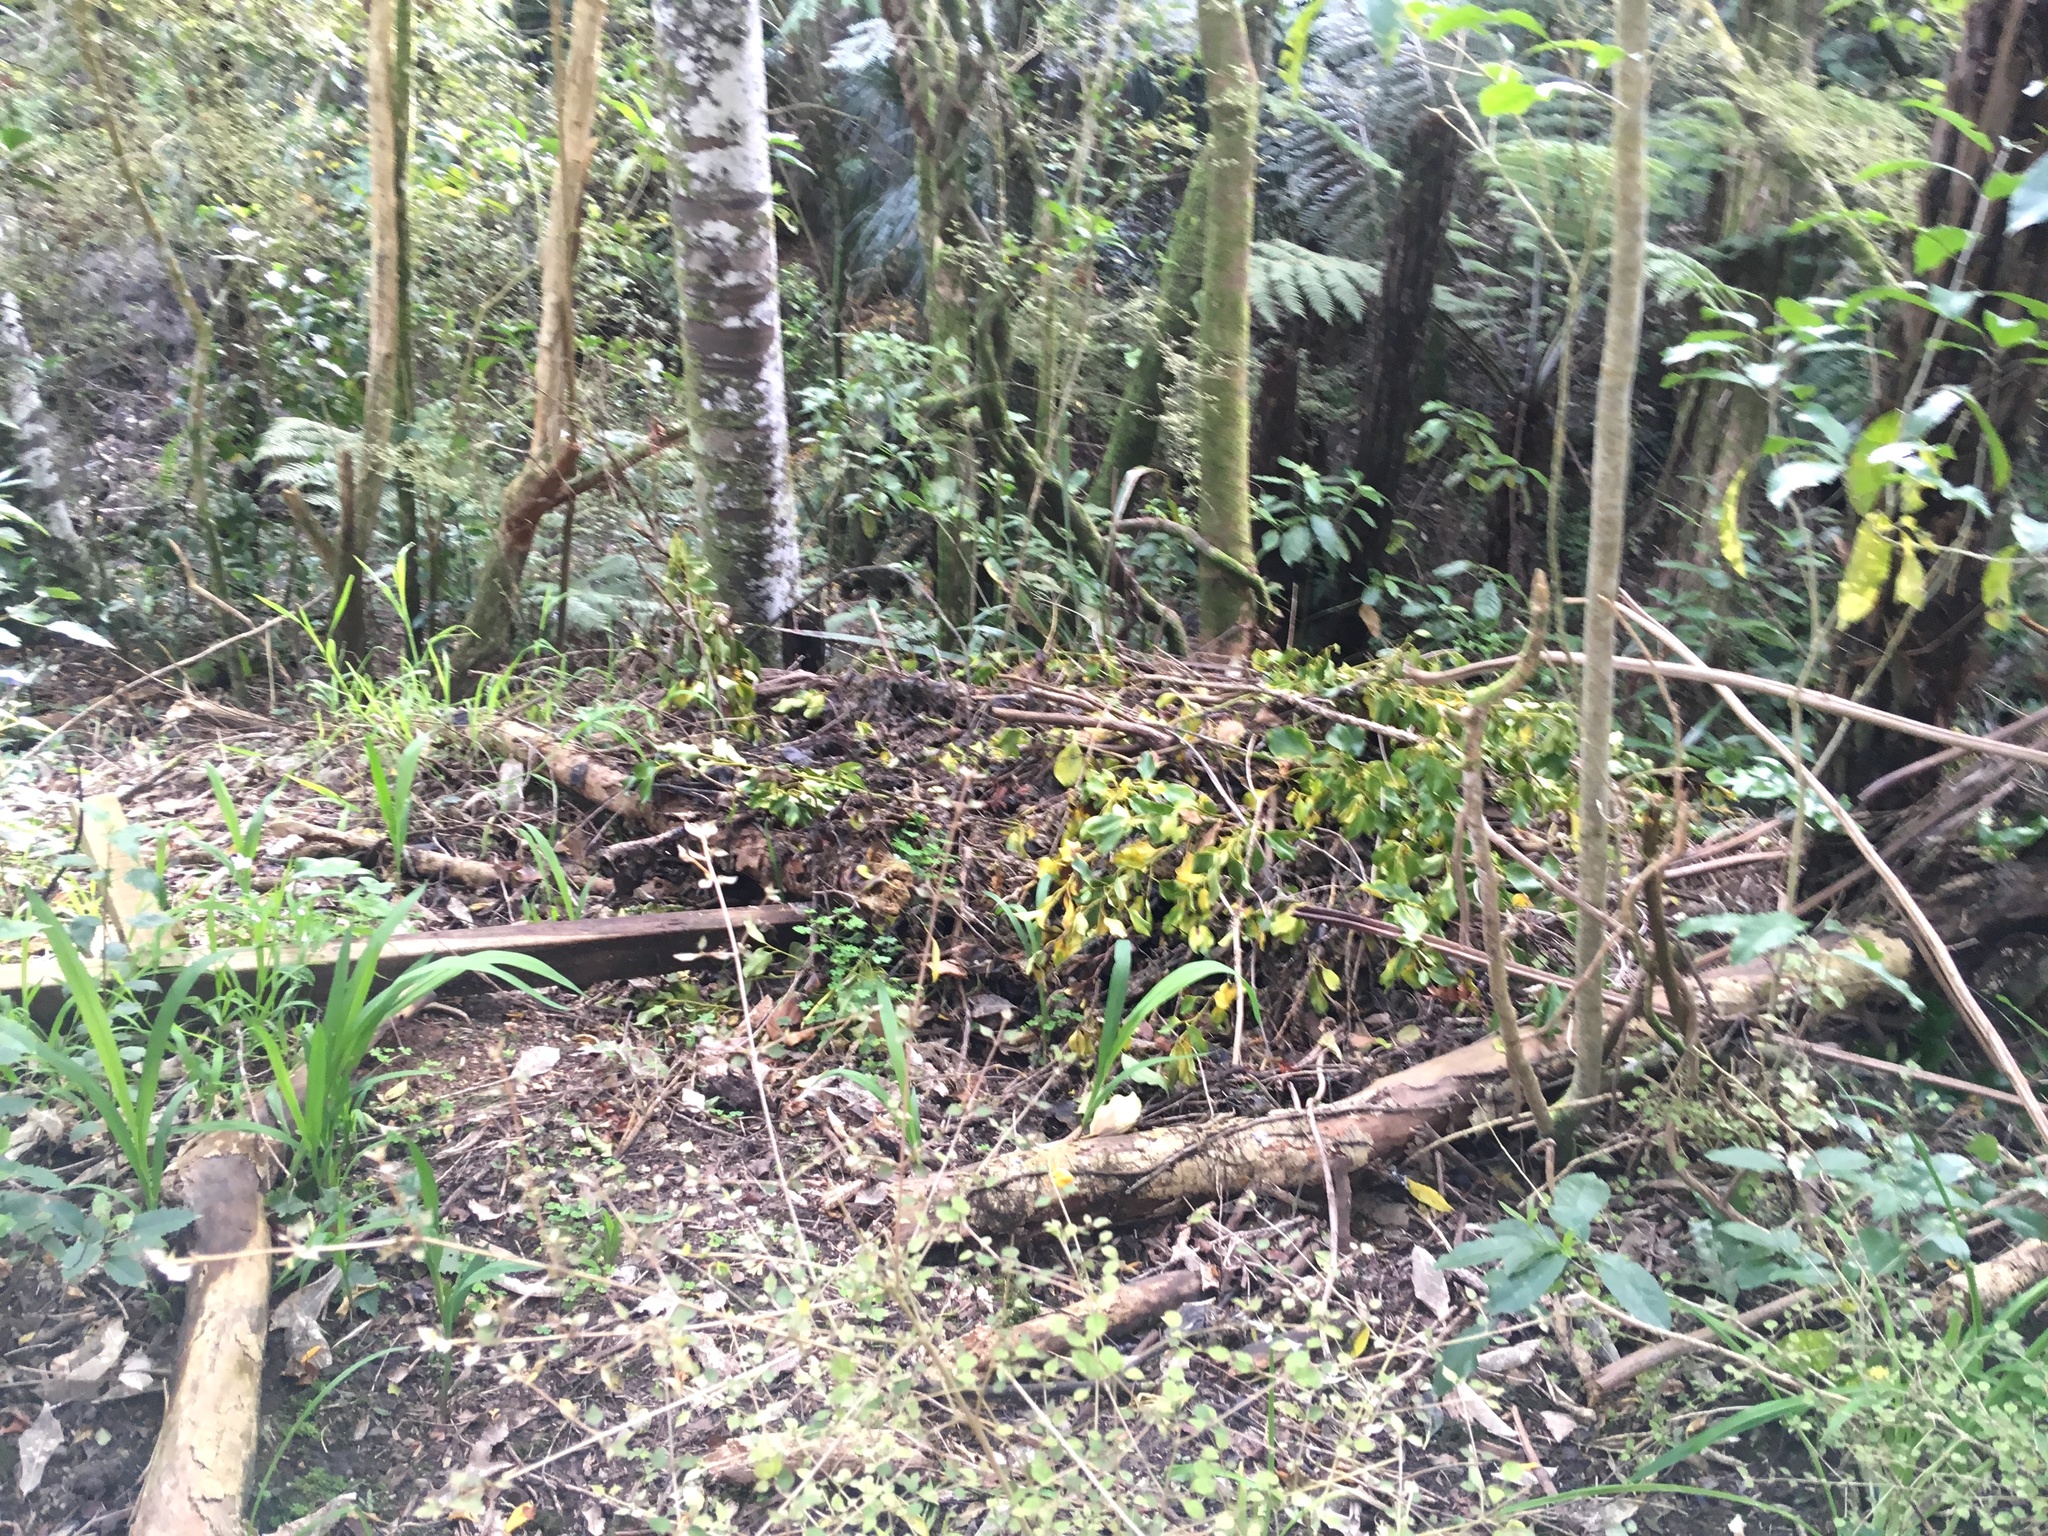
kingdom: Plantae
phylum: Tracheophyta
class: Pinopsida
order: Pinales
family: Phyllocladaceae
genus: Phyllocladus
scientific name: Phyllocladus trichomanoides
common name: Celery pine
